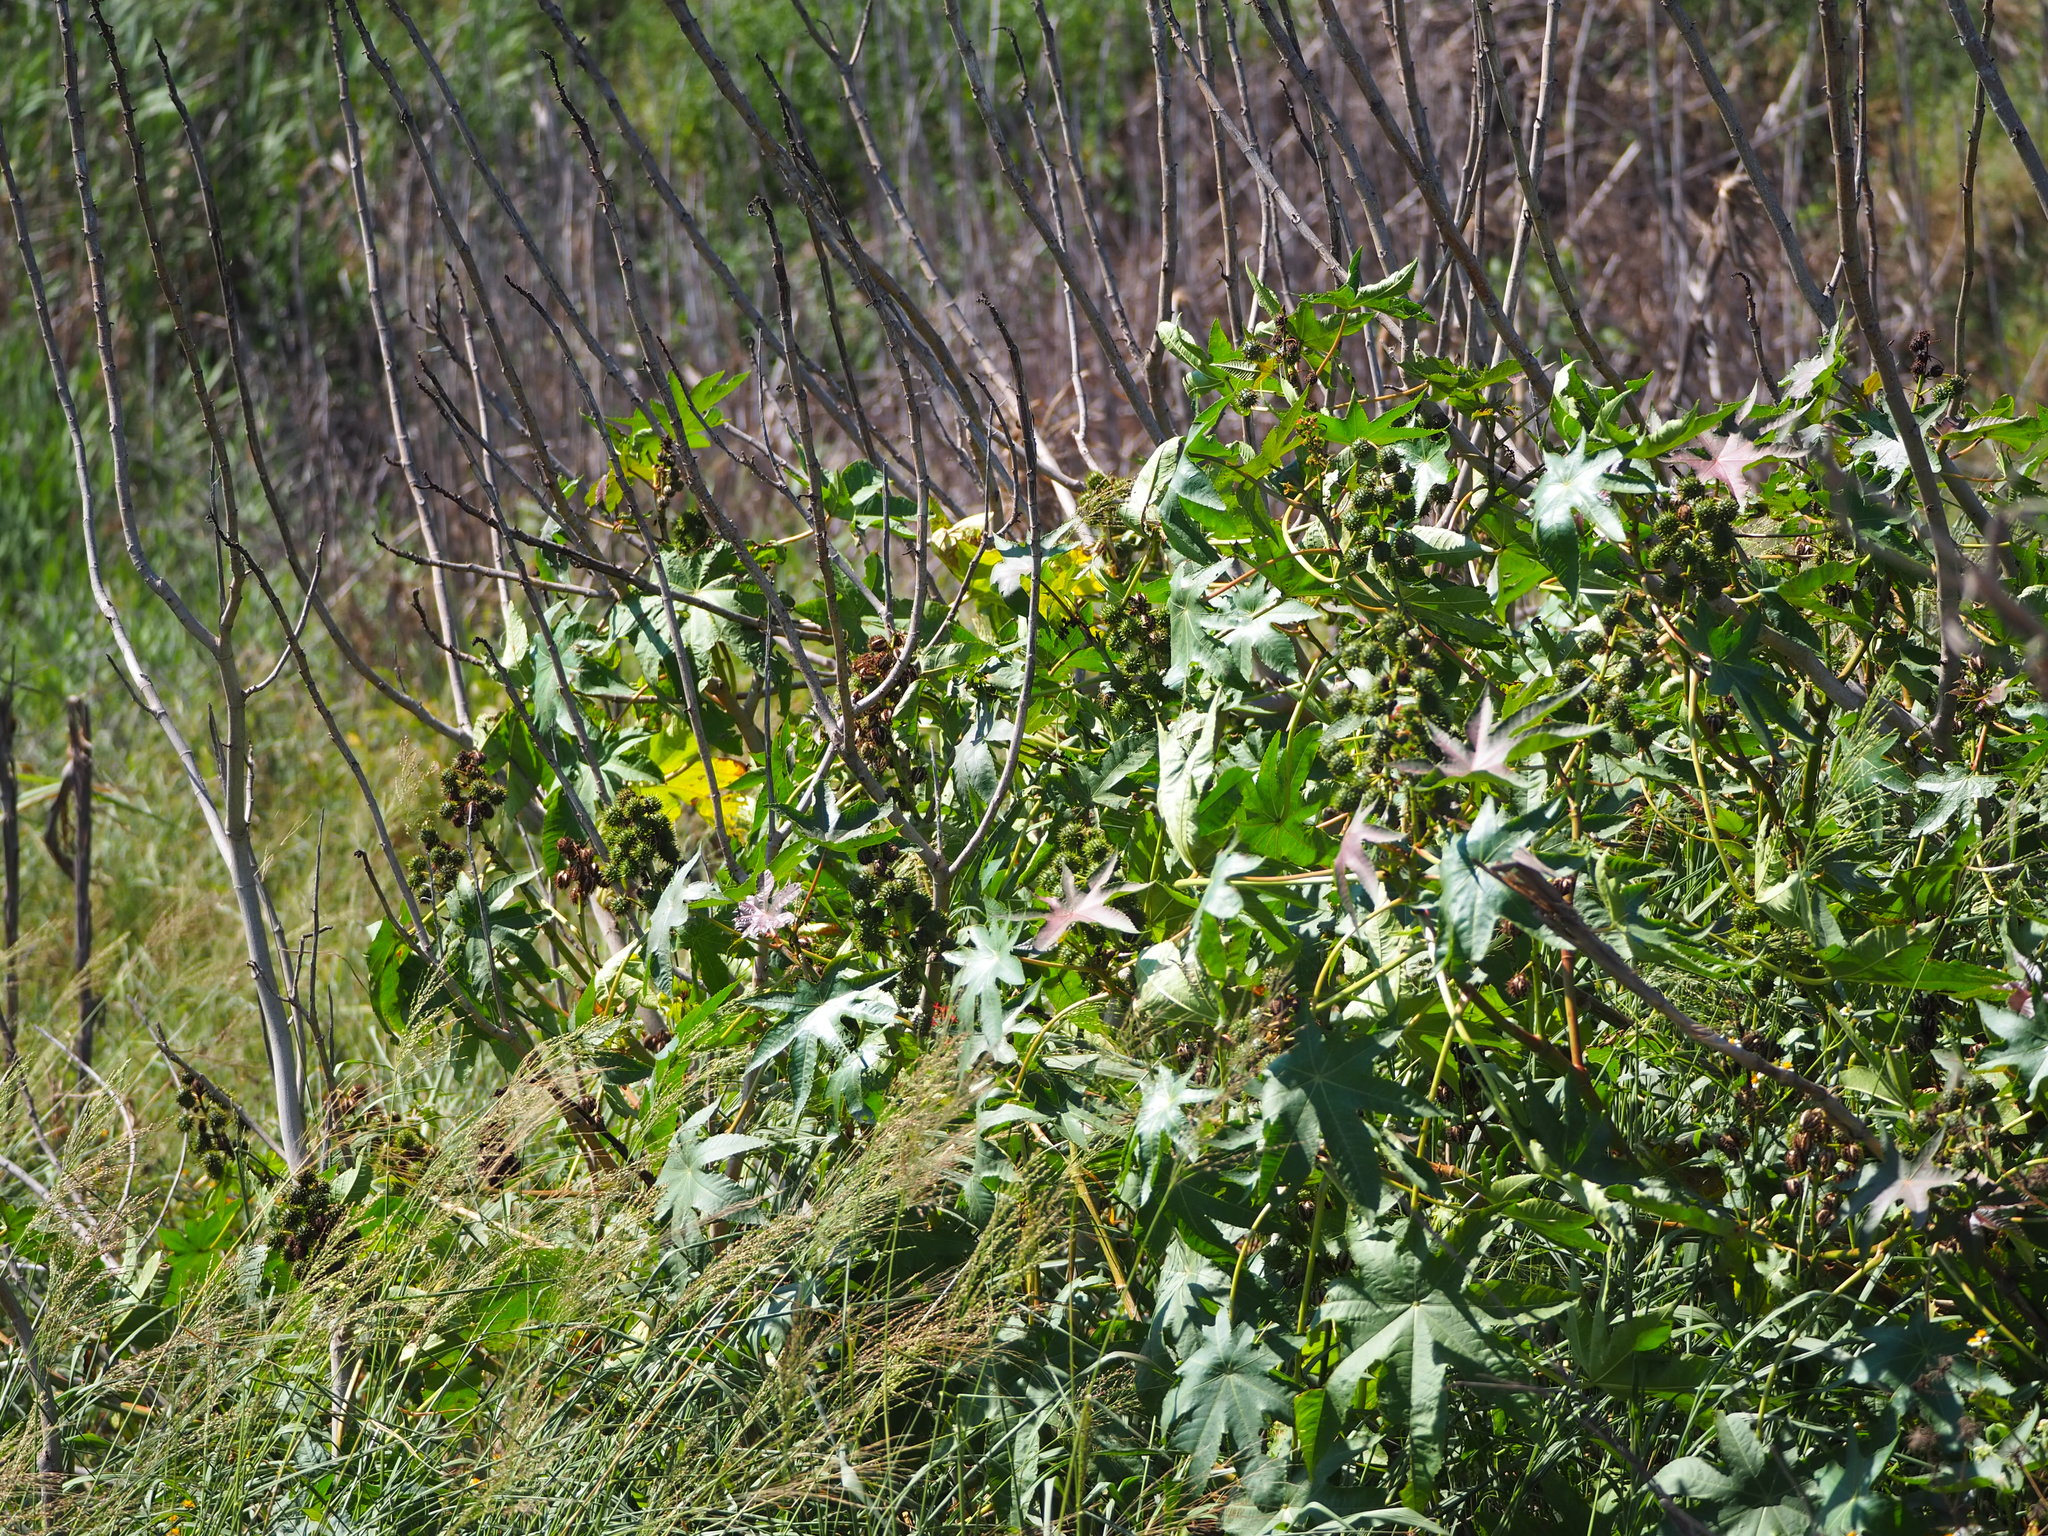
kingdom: Plantae
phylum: Tracheophyta
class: Magnoliopsida
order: Malpighiales
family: Euphorbiaceae
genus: Ricinus
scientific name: Ricinus communis
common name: Castor-oil-plant
